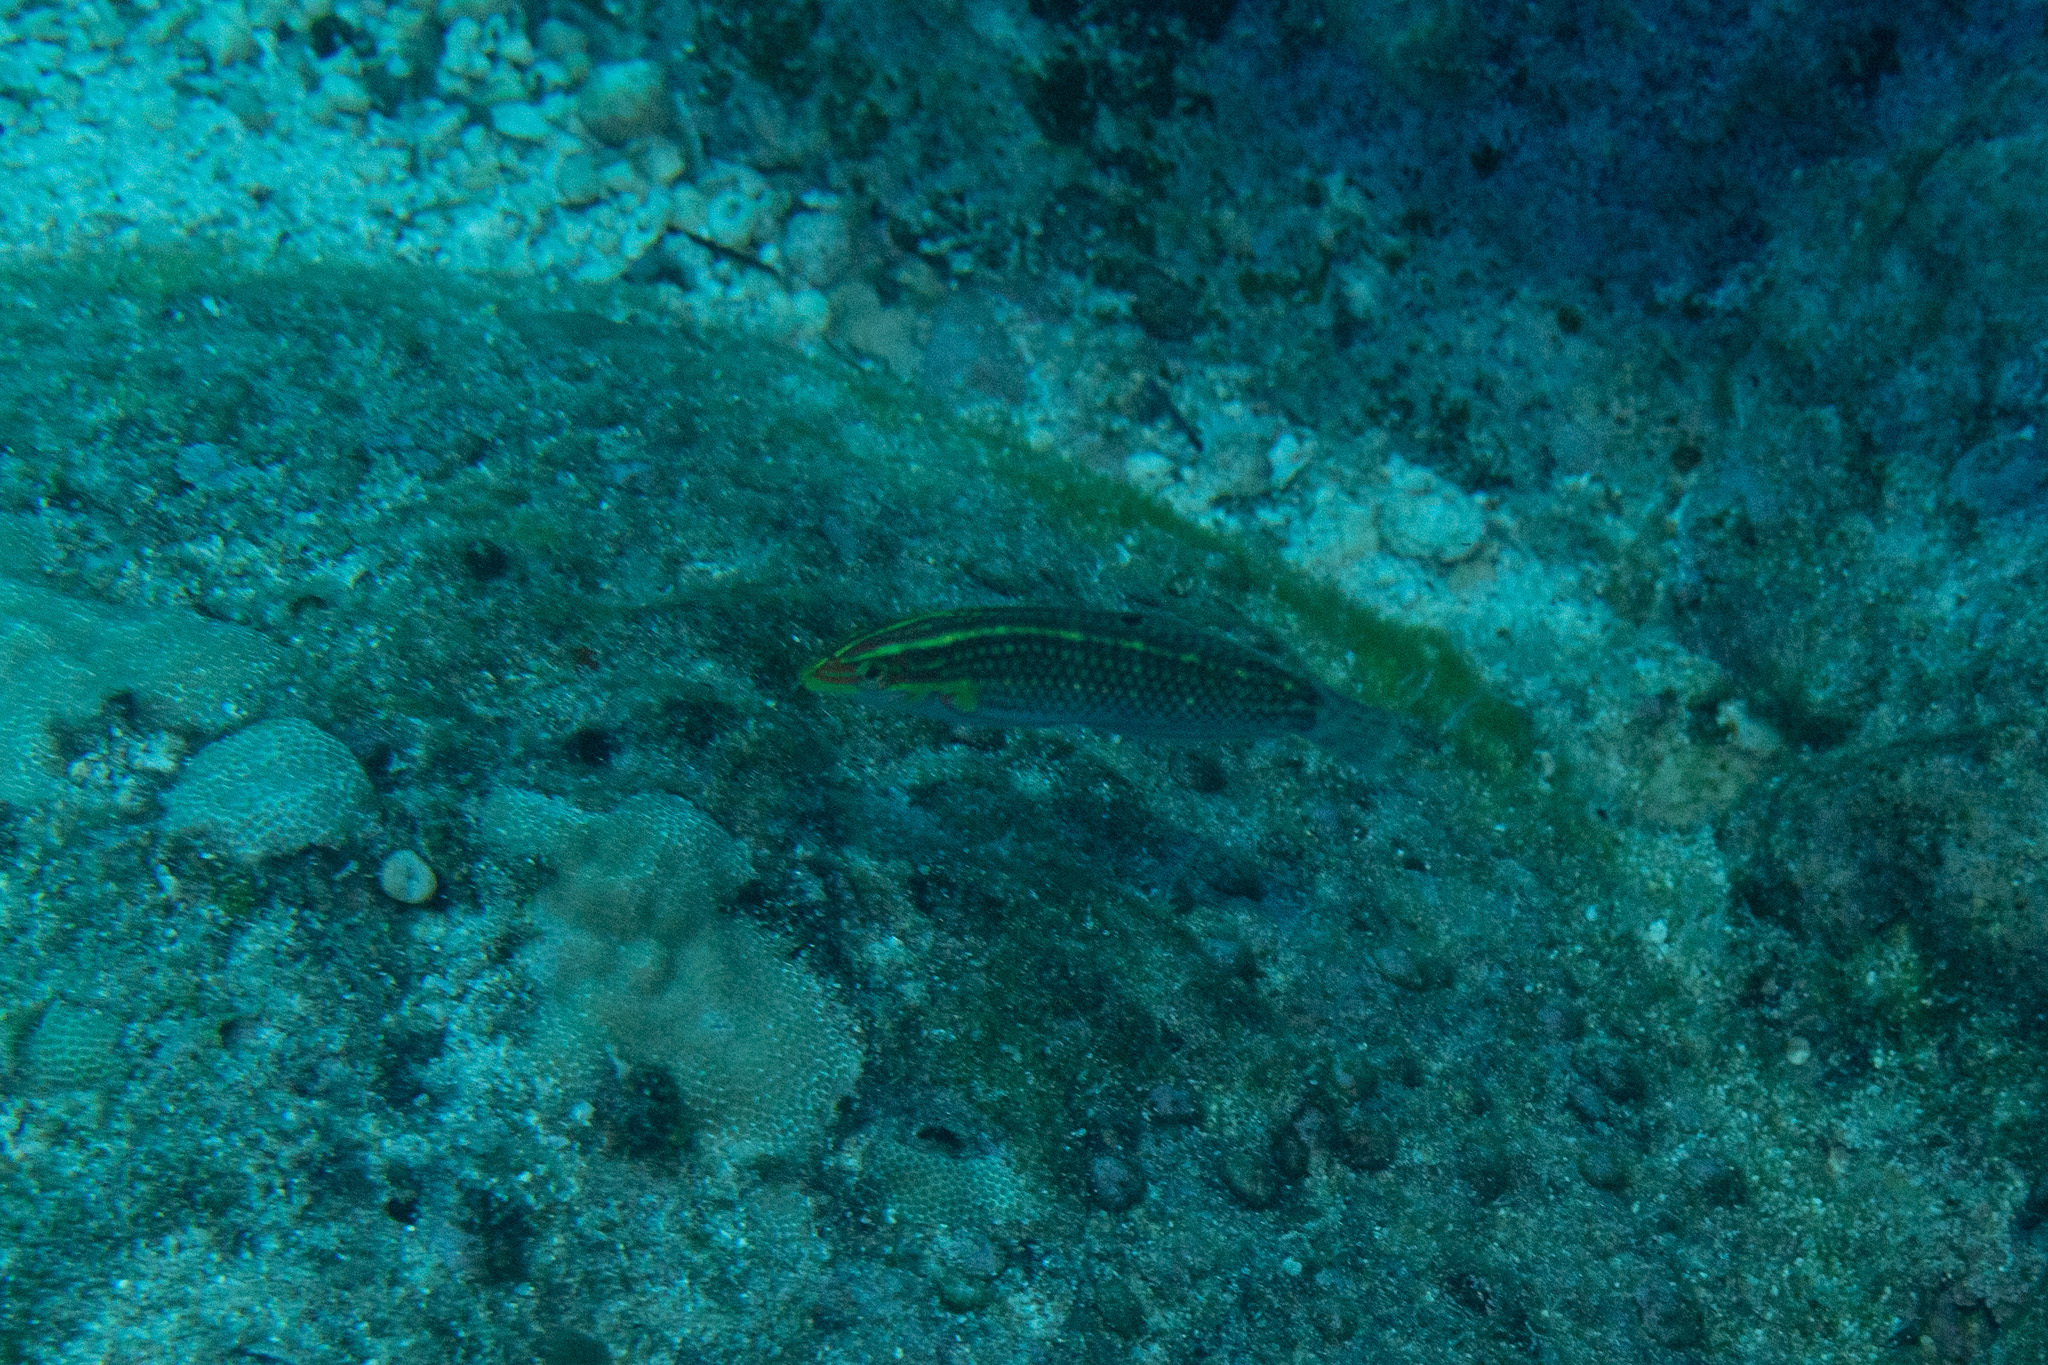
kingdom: Animalia
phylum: Chordata
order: Perciformes
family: Labridae
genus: Halichoeres
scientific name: Halichoeres ornatissimus
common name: Ornamented wrasse
